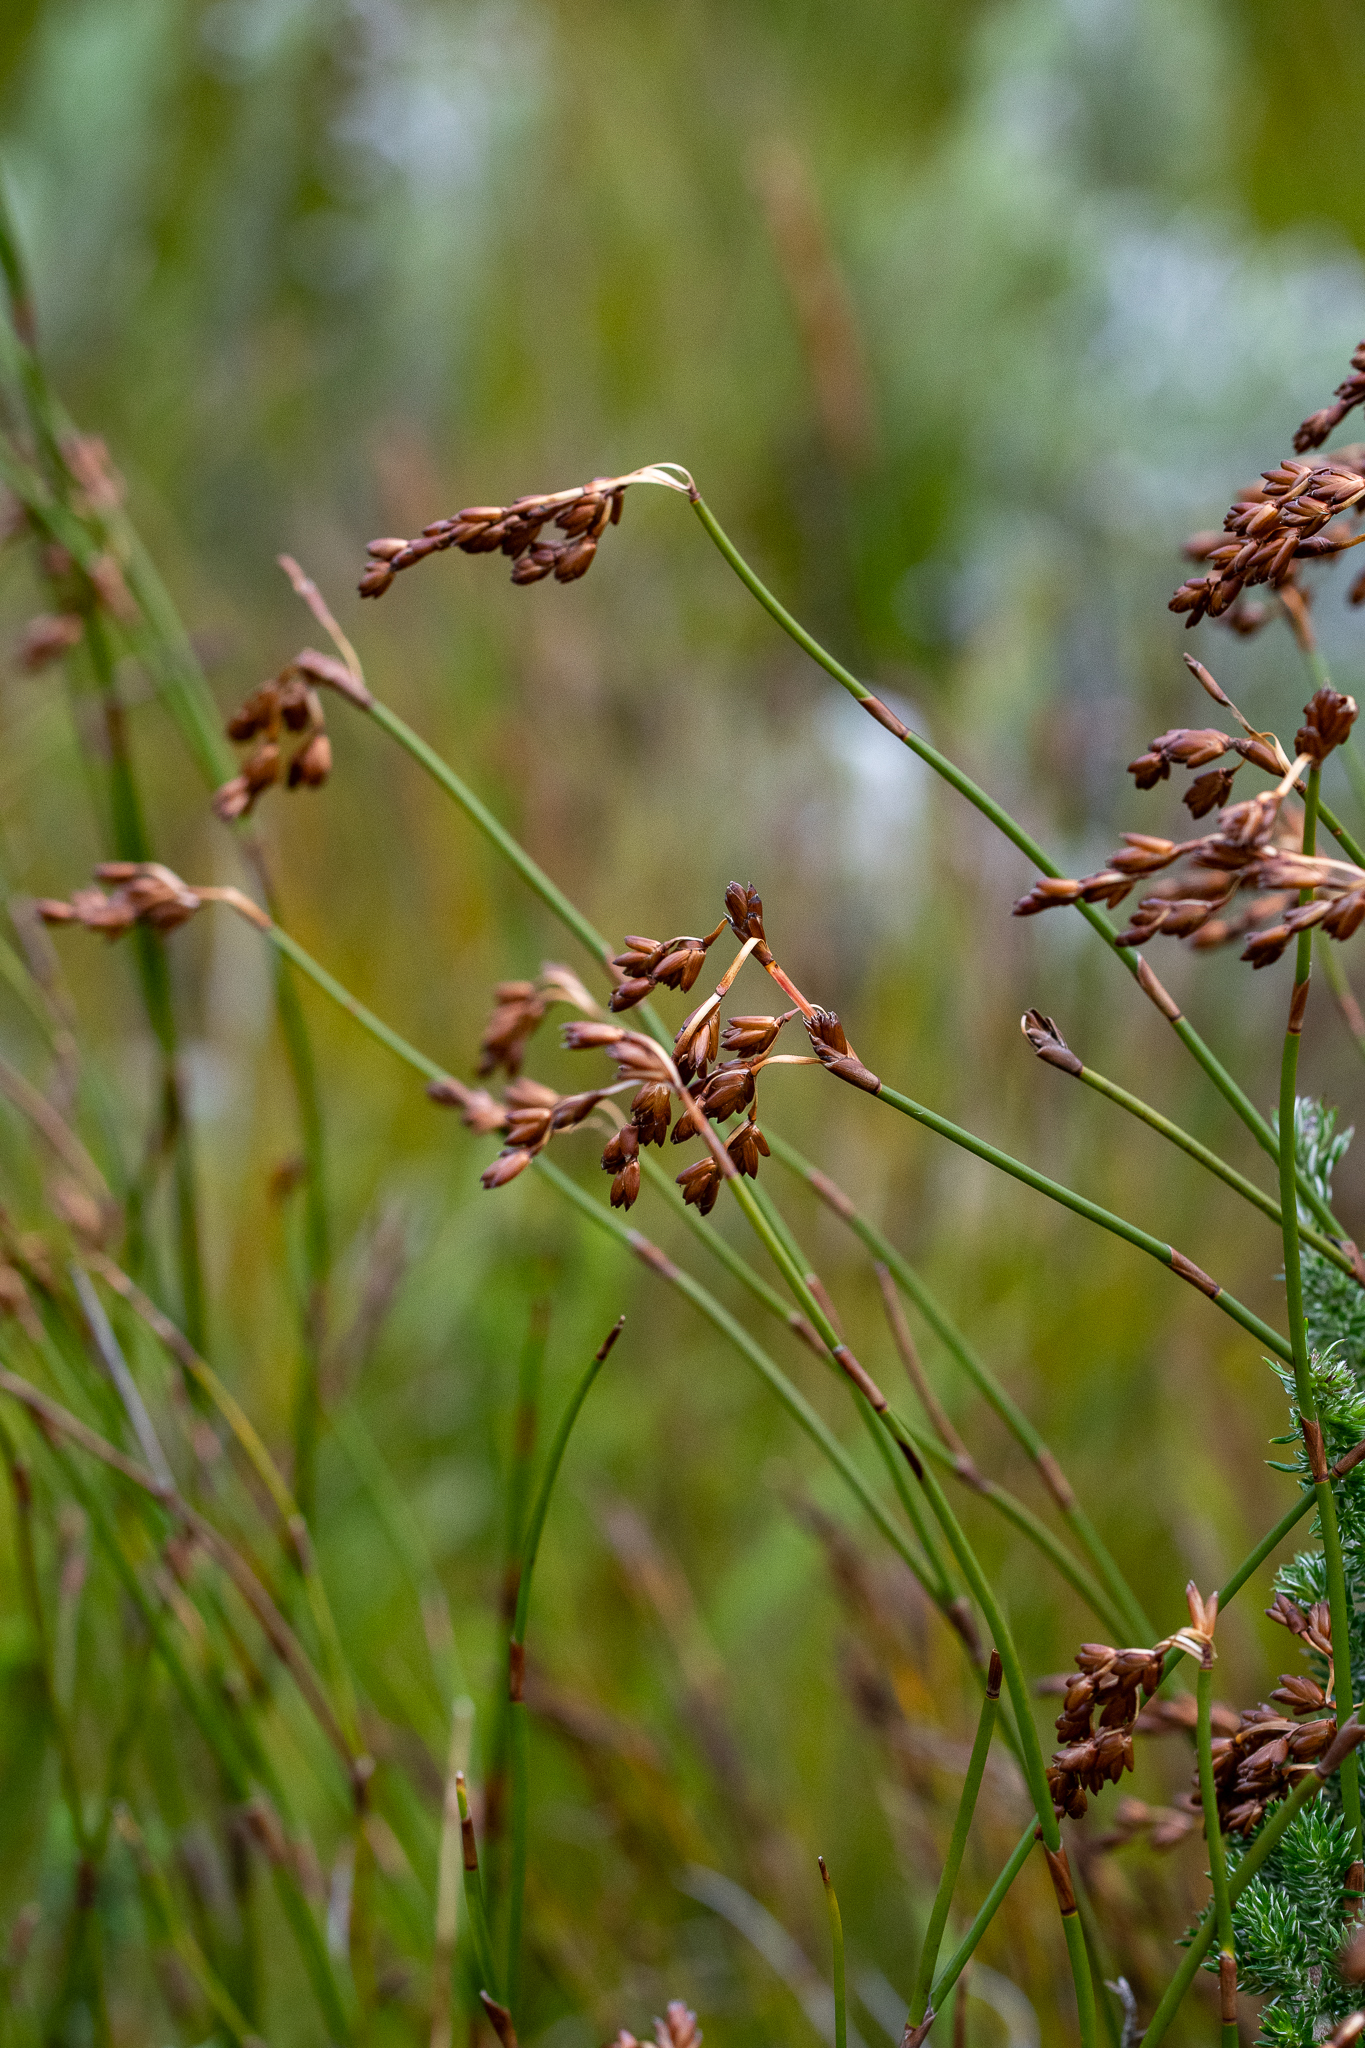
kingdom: Plantae
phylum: Tracheophyta
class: Liliopsida
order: Poales
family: Restionaceae
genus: Restio
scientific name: Restio egregius
